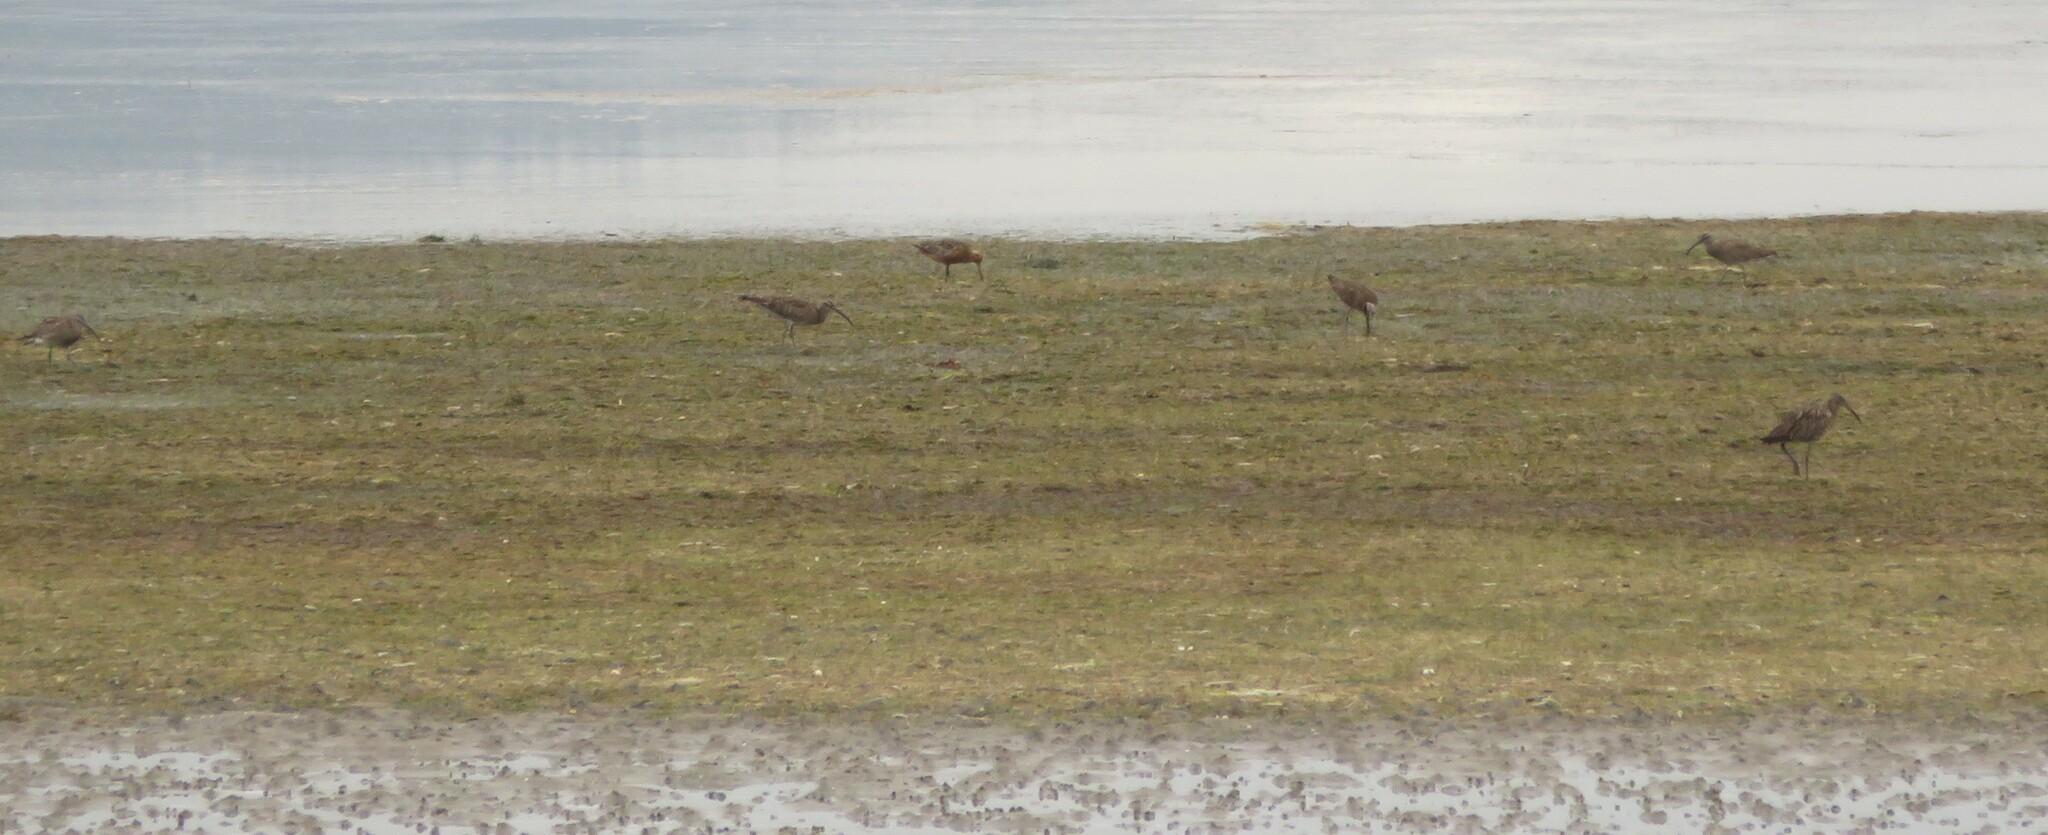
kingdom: Animalia
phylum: Chordata
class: Aves
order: Charadriiformes
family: Scolopacidae
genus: Numenius
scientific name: Numenius phaeopus
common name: Whimbrel
